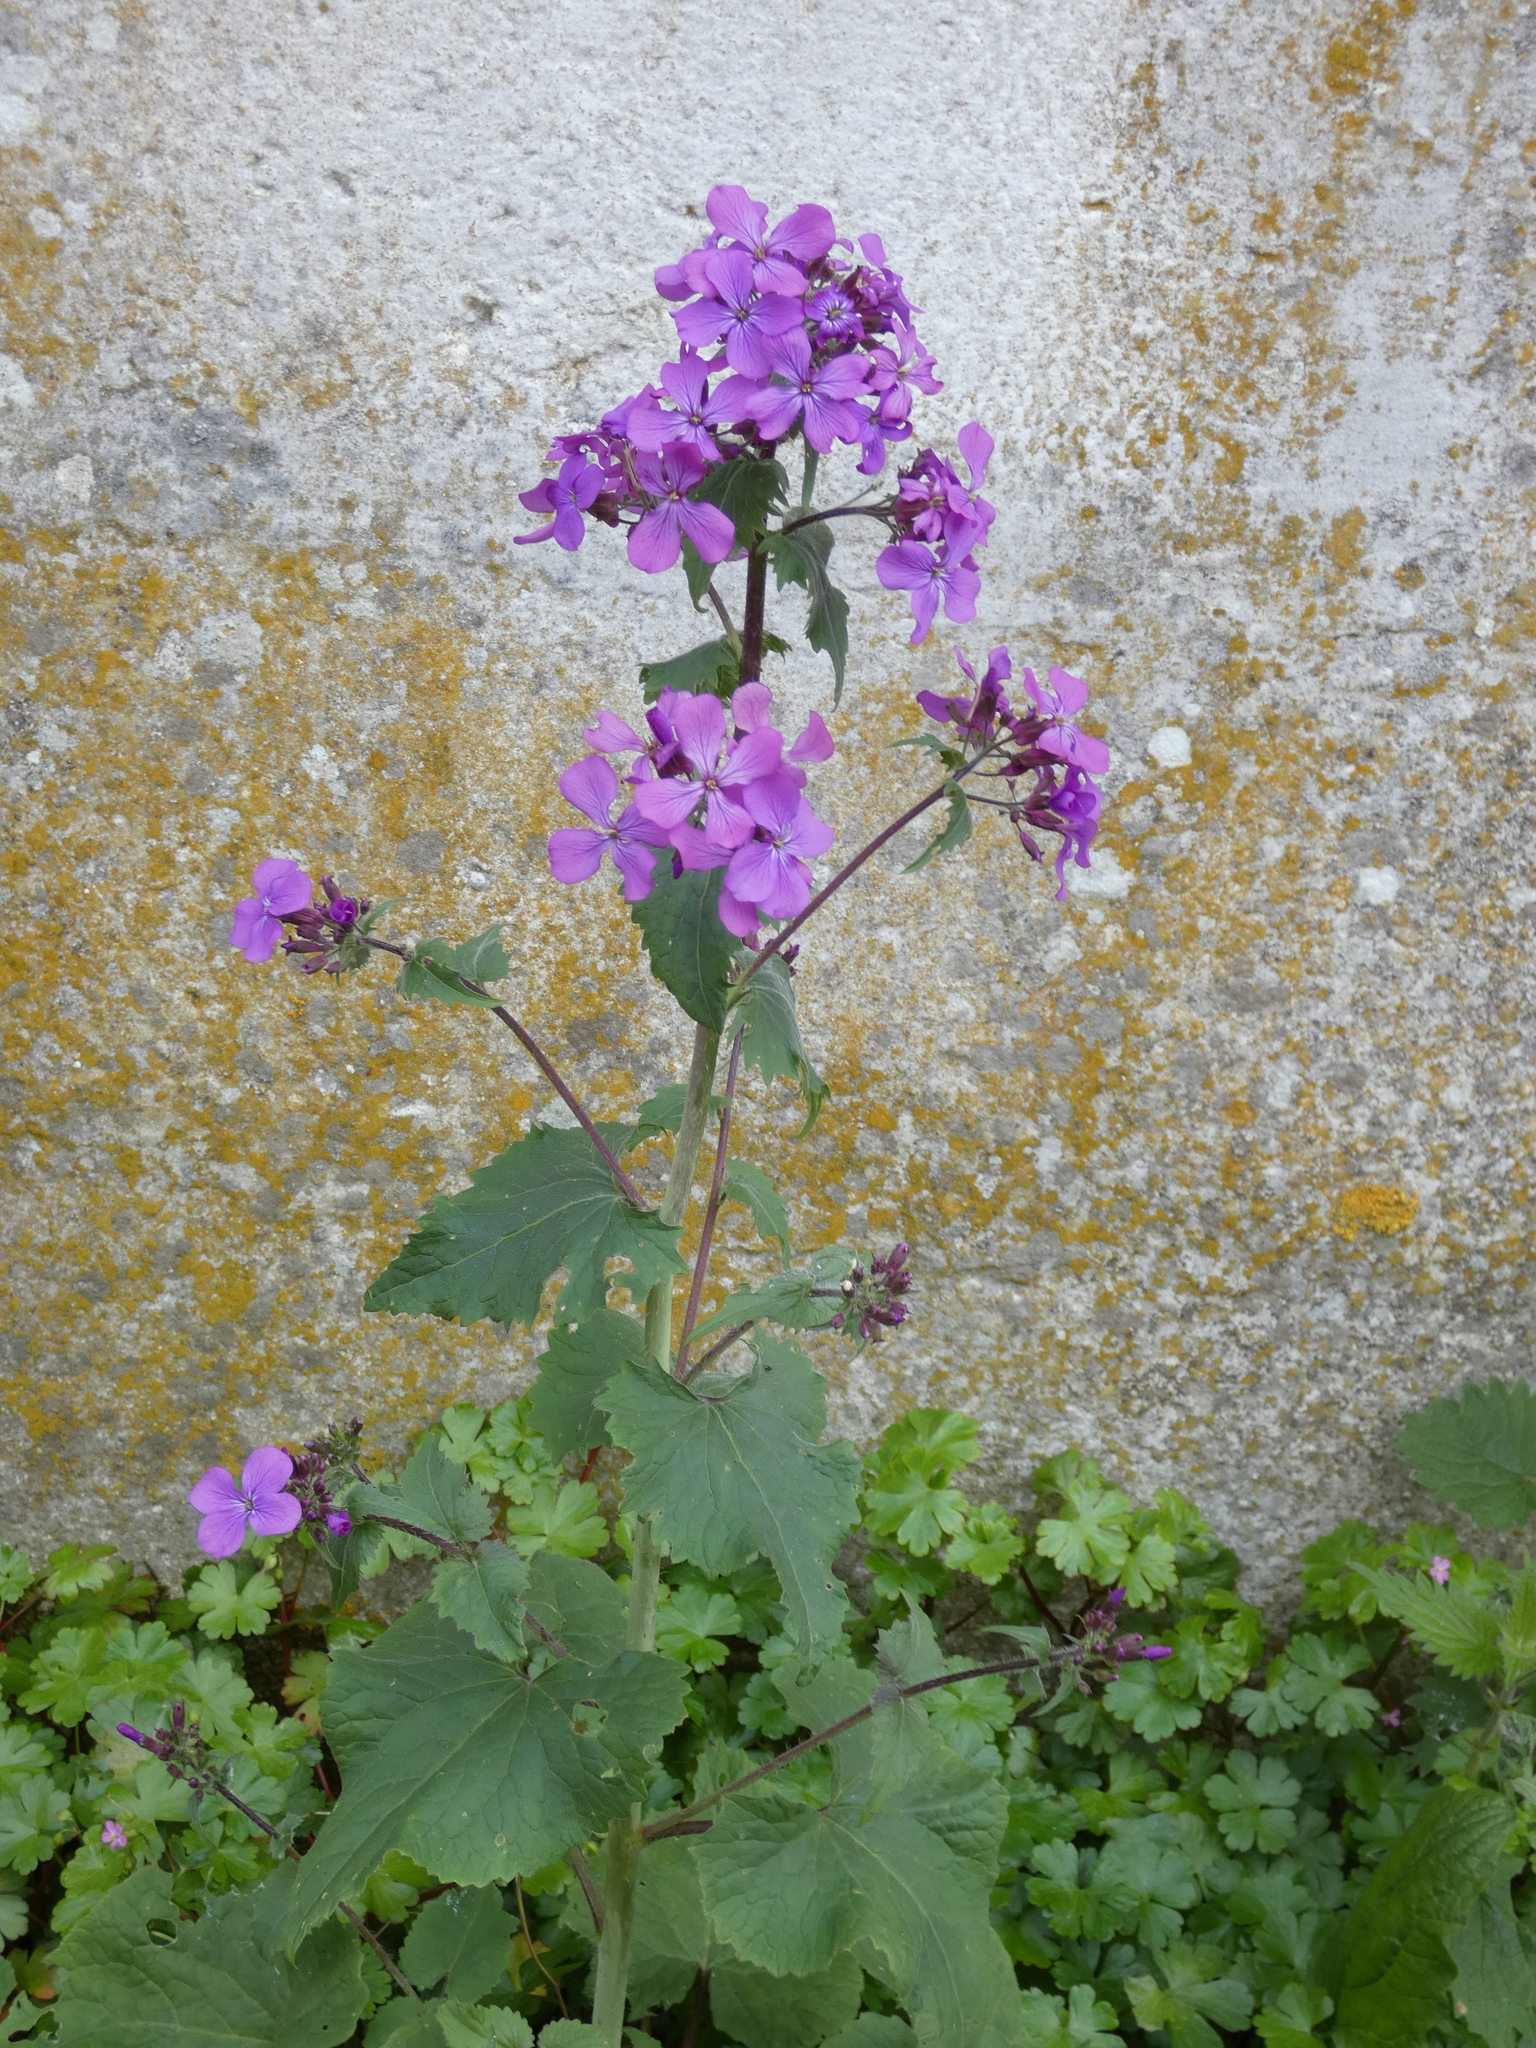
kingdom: Plantae
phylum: Tracheophyta
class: Magnoliopsida
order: Brassicales
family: Brassicaceae
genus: Lunaria
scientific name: Lunaria annua
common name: Honesty
